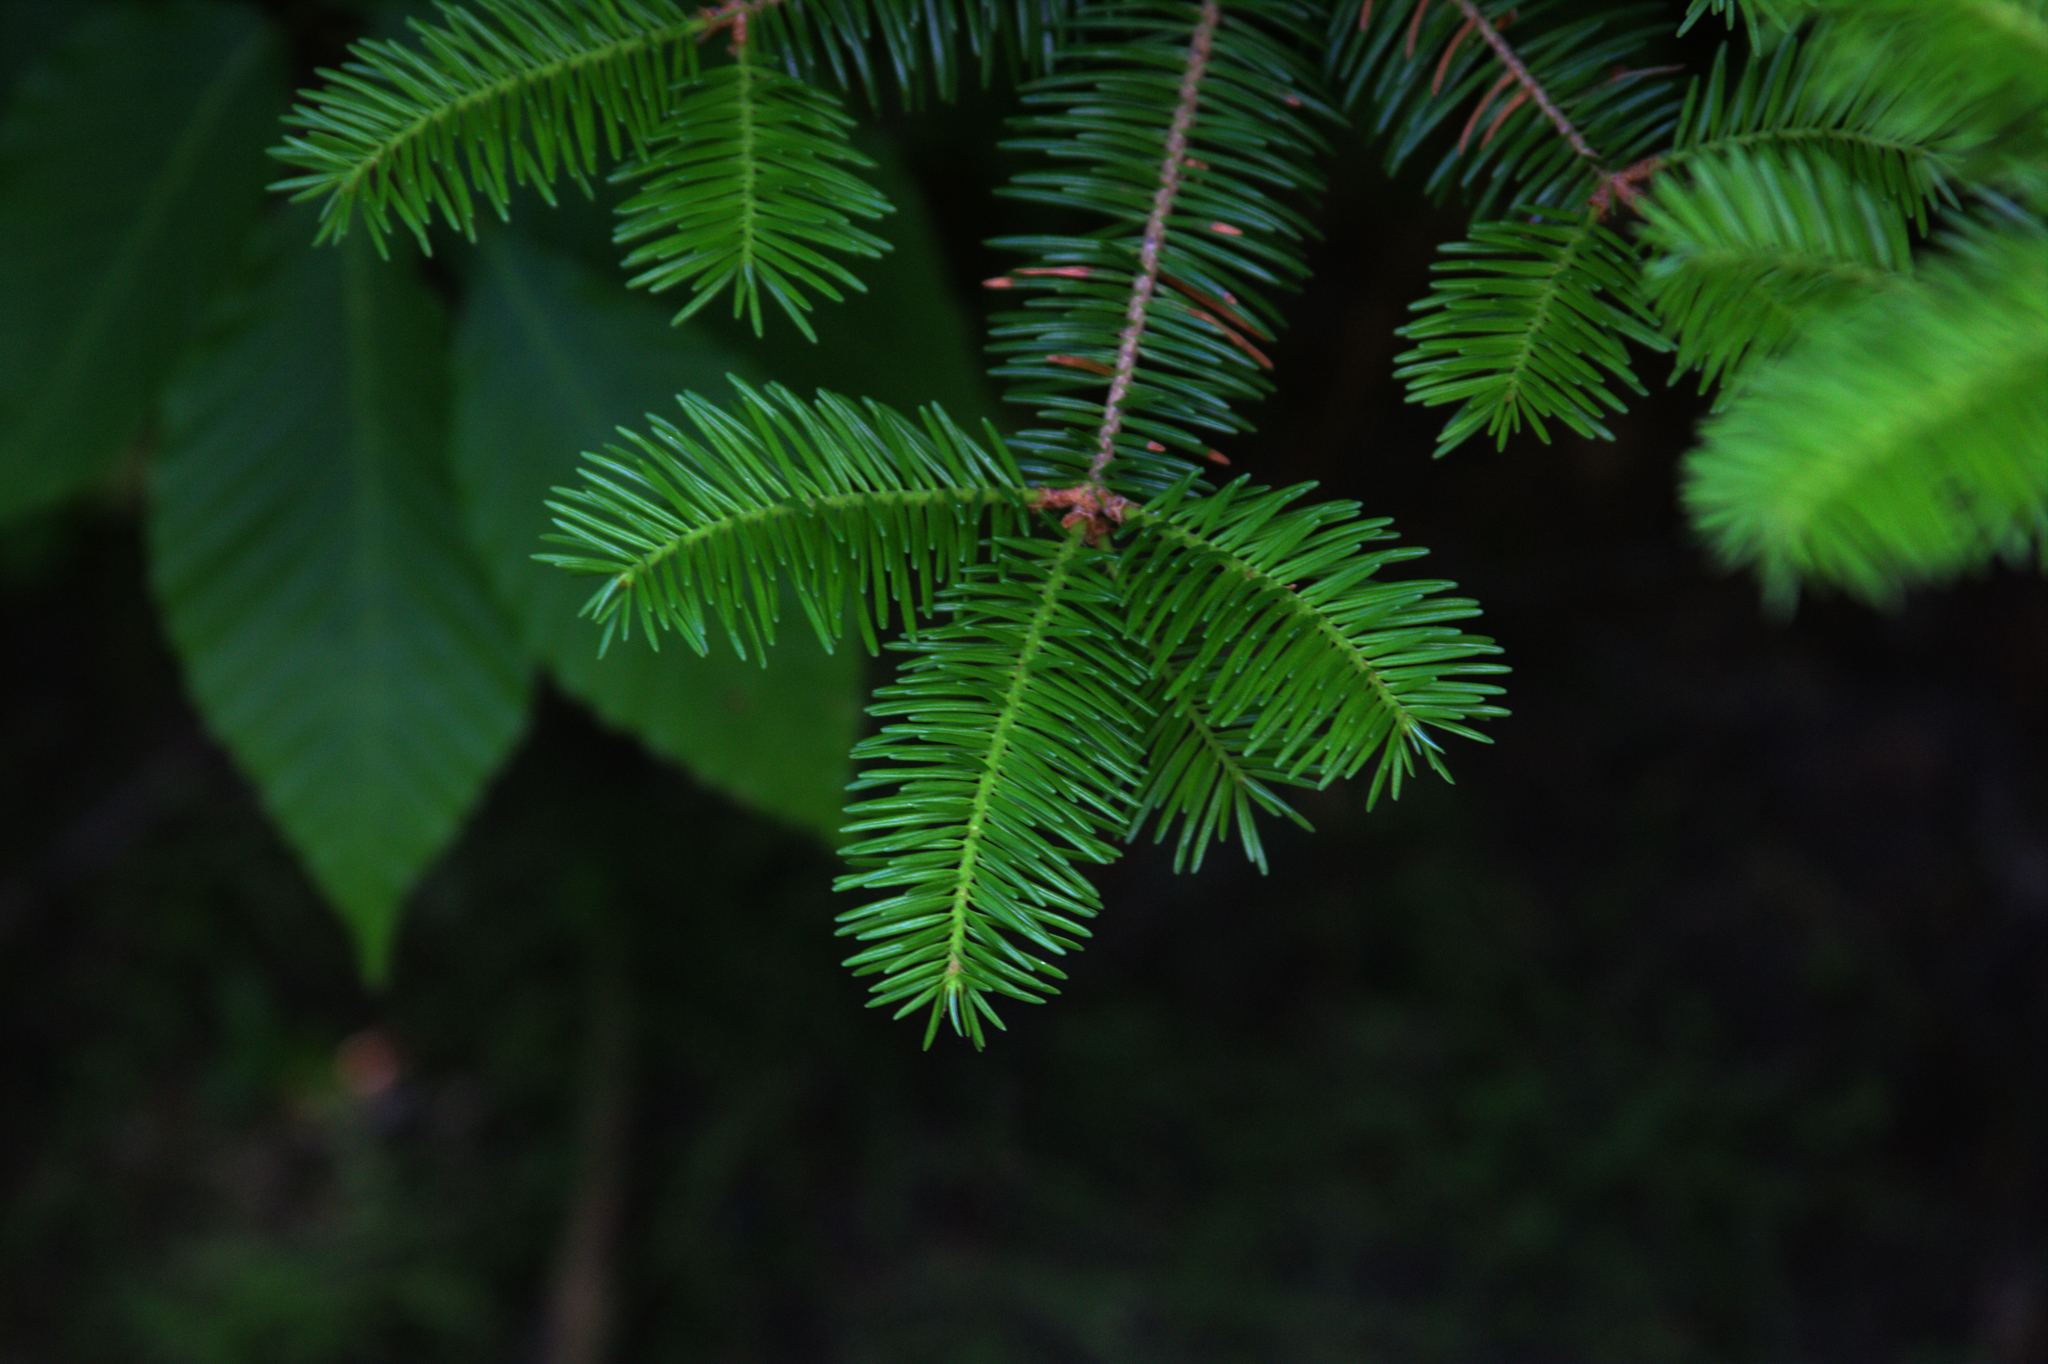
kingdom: Plantae
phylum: Tracheophyta
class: Pinopsida
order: Pinales
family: Pinaceae
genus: Abies
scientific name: Abies balsamea
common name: Balsam fir
